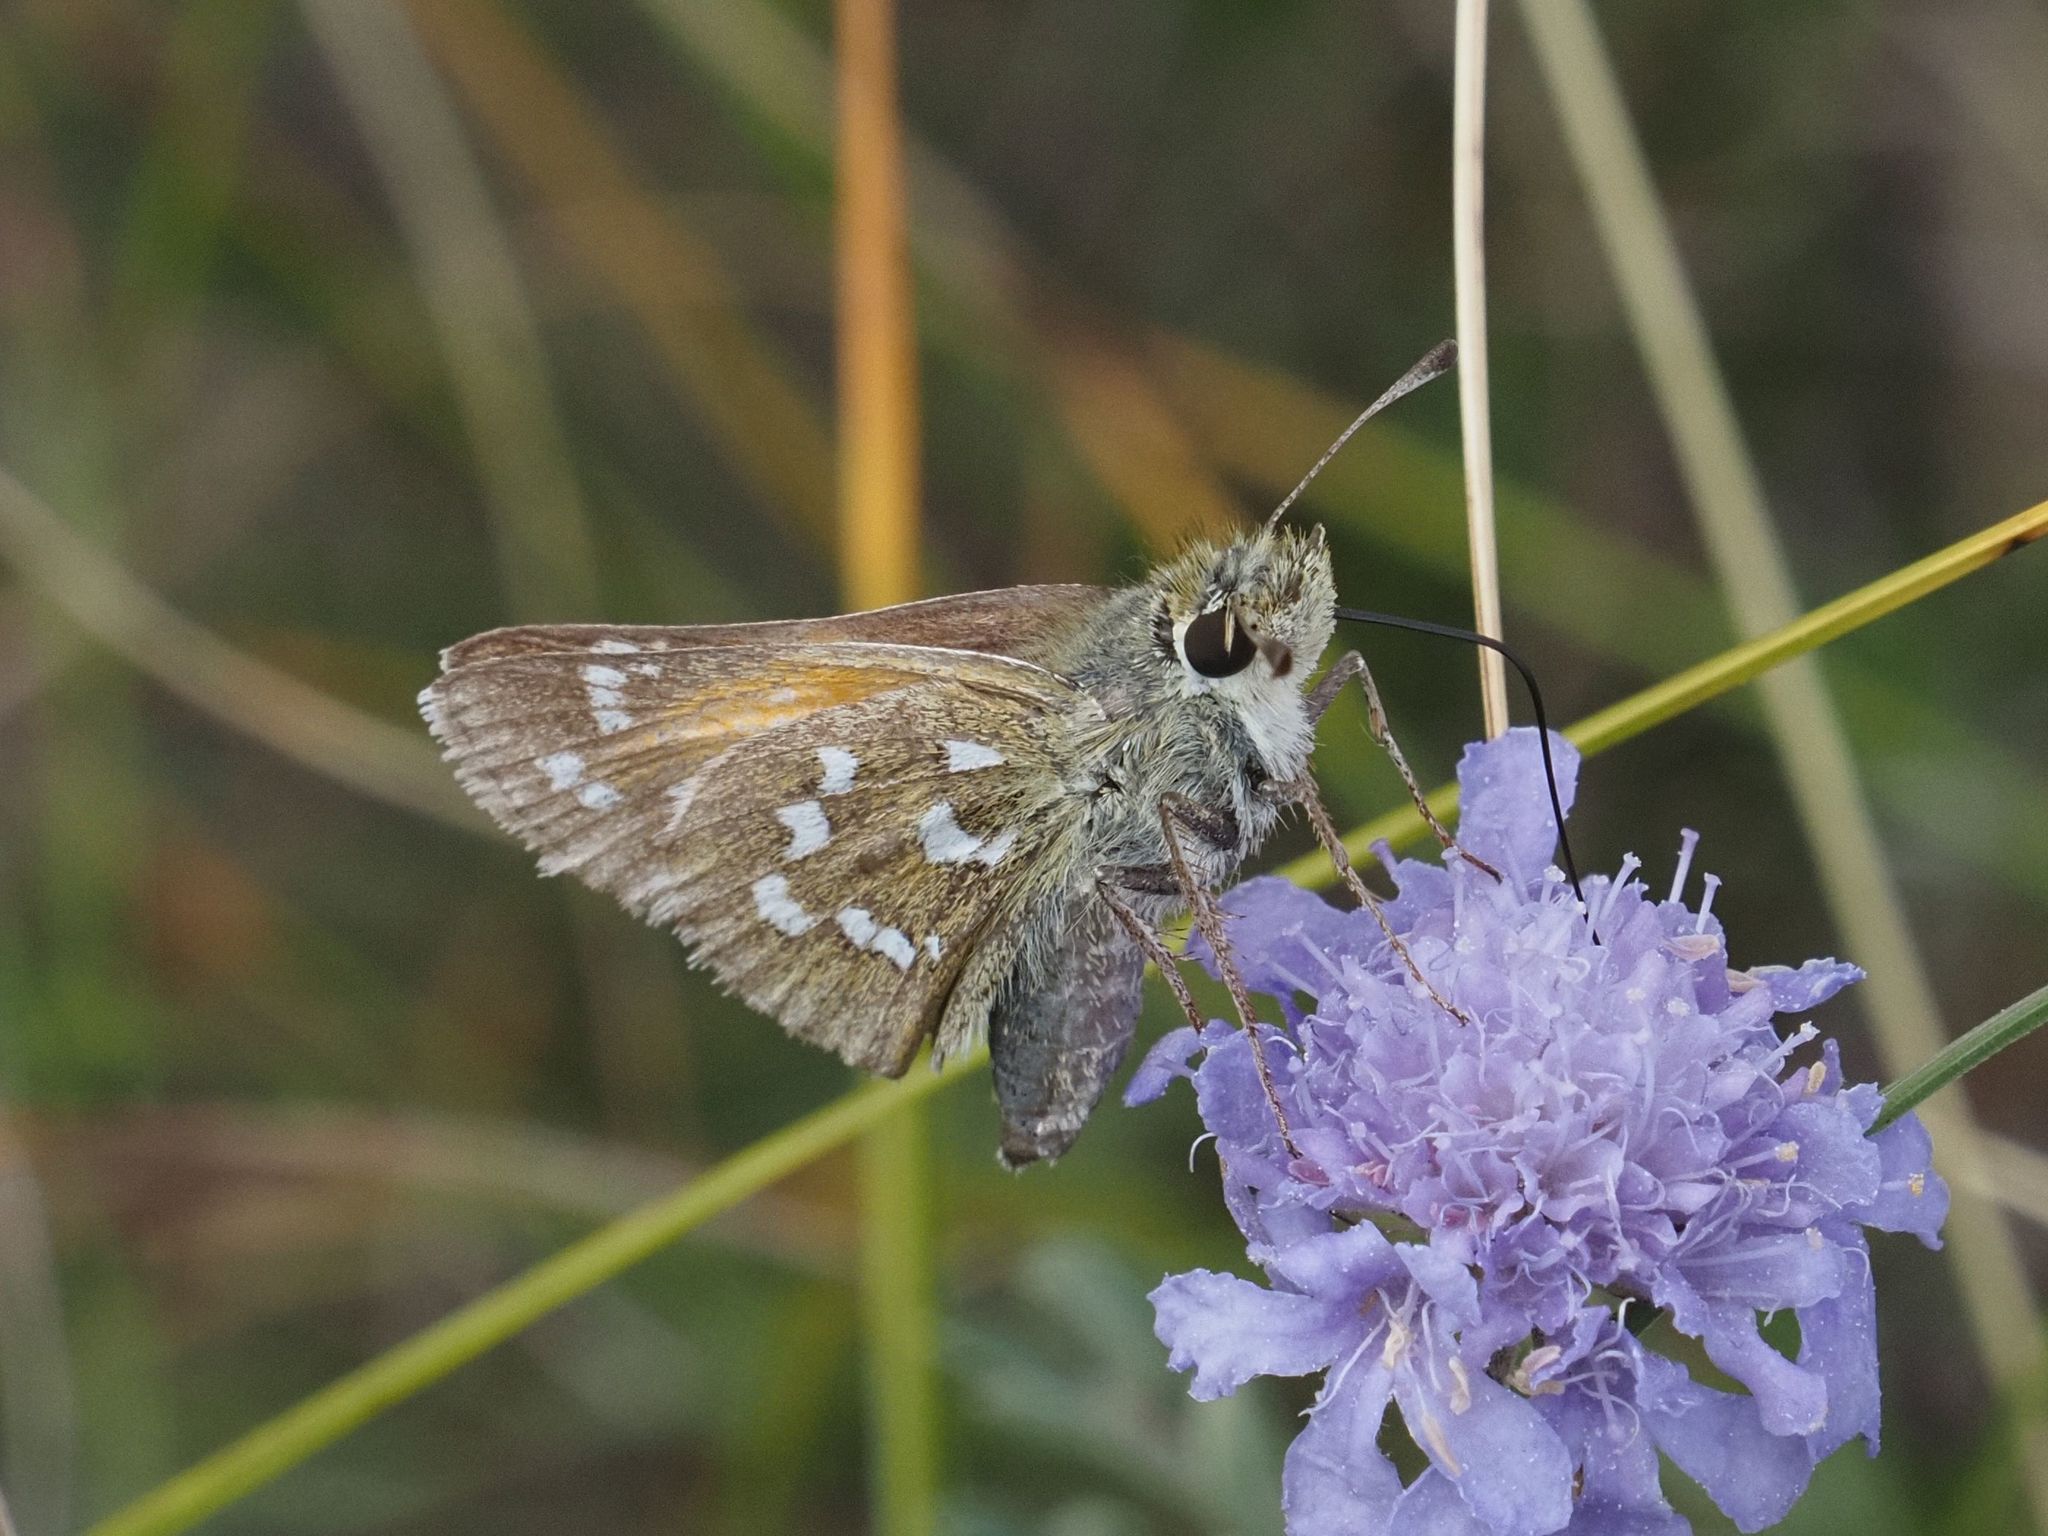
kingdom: Animalia
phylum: Arthropoda
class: Insecta
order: Lepidoptera
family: Hesperiidae
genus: Hesperia
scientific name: Hesperia comma
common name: Common branded skipper
